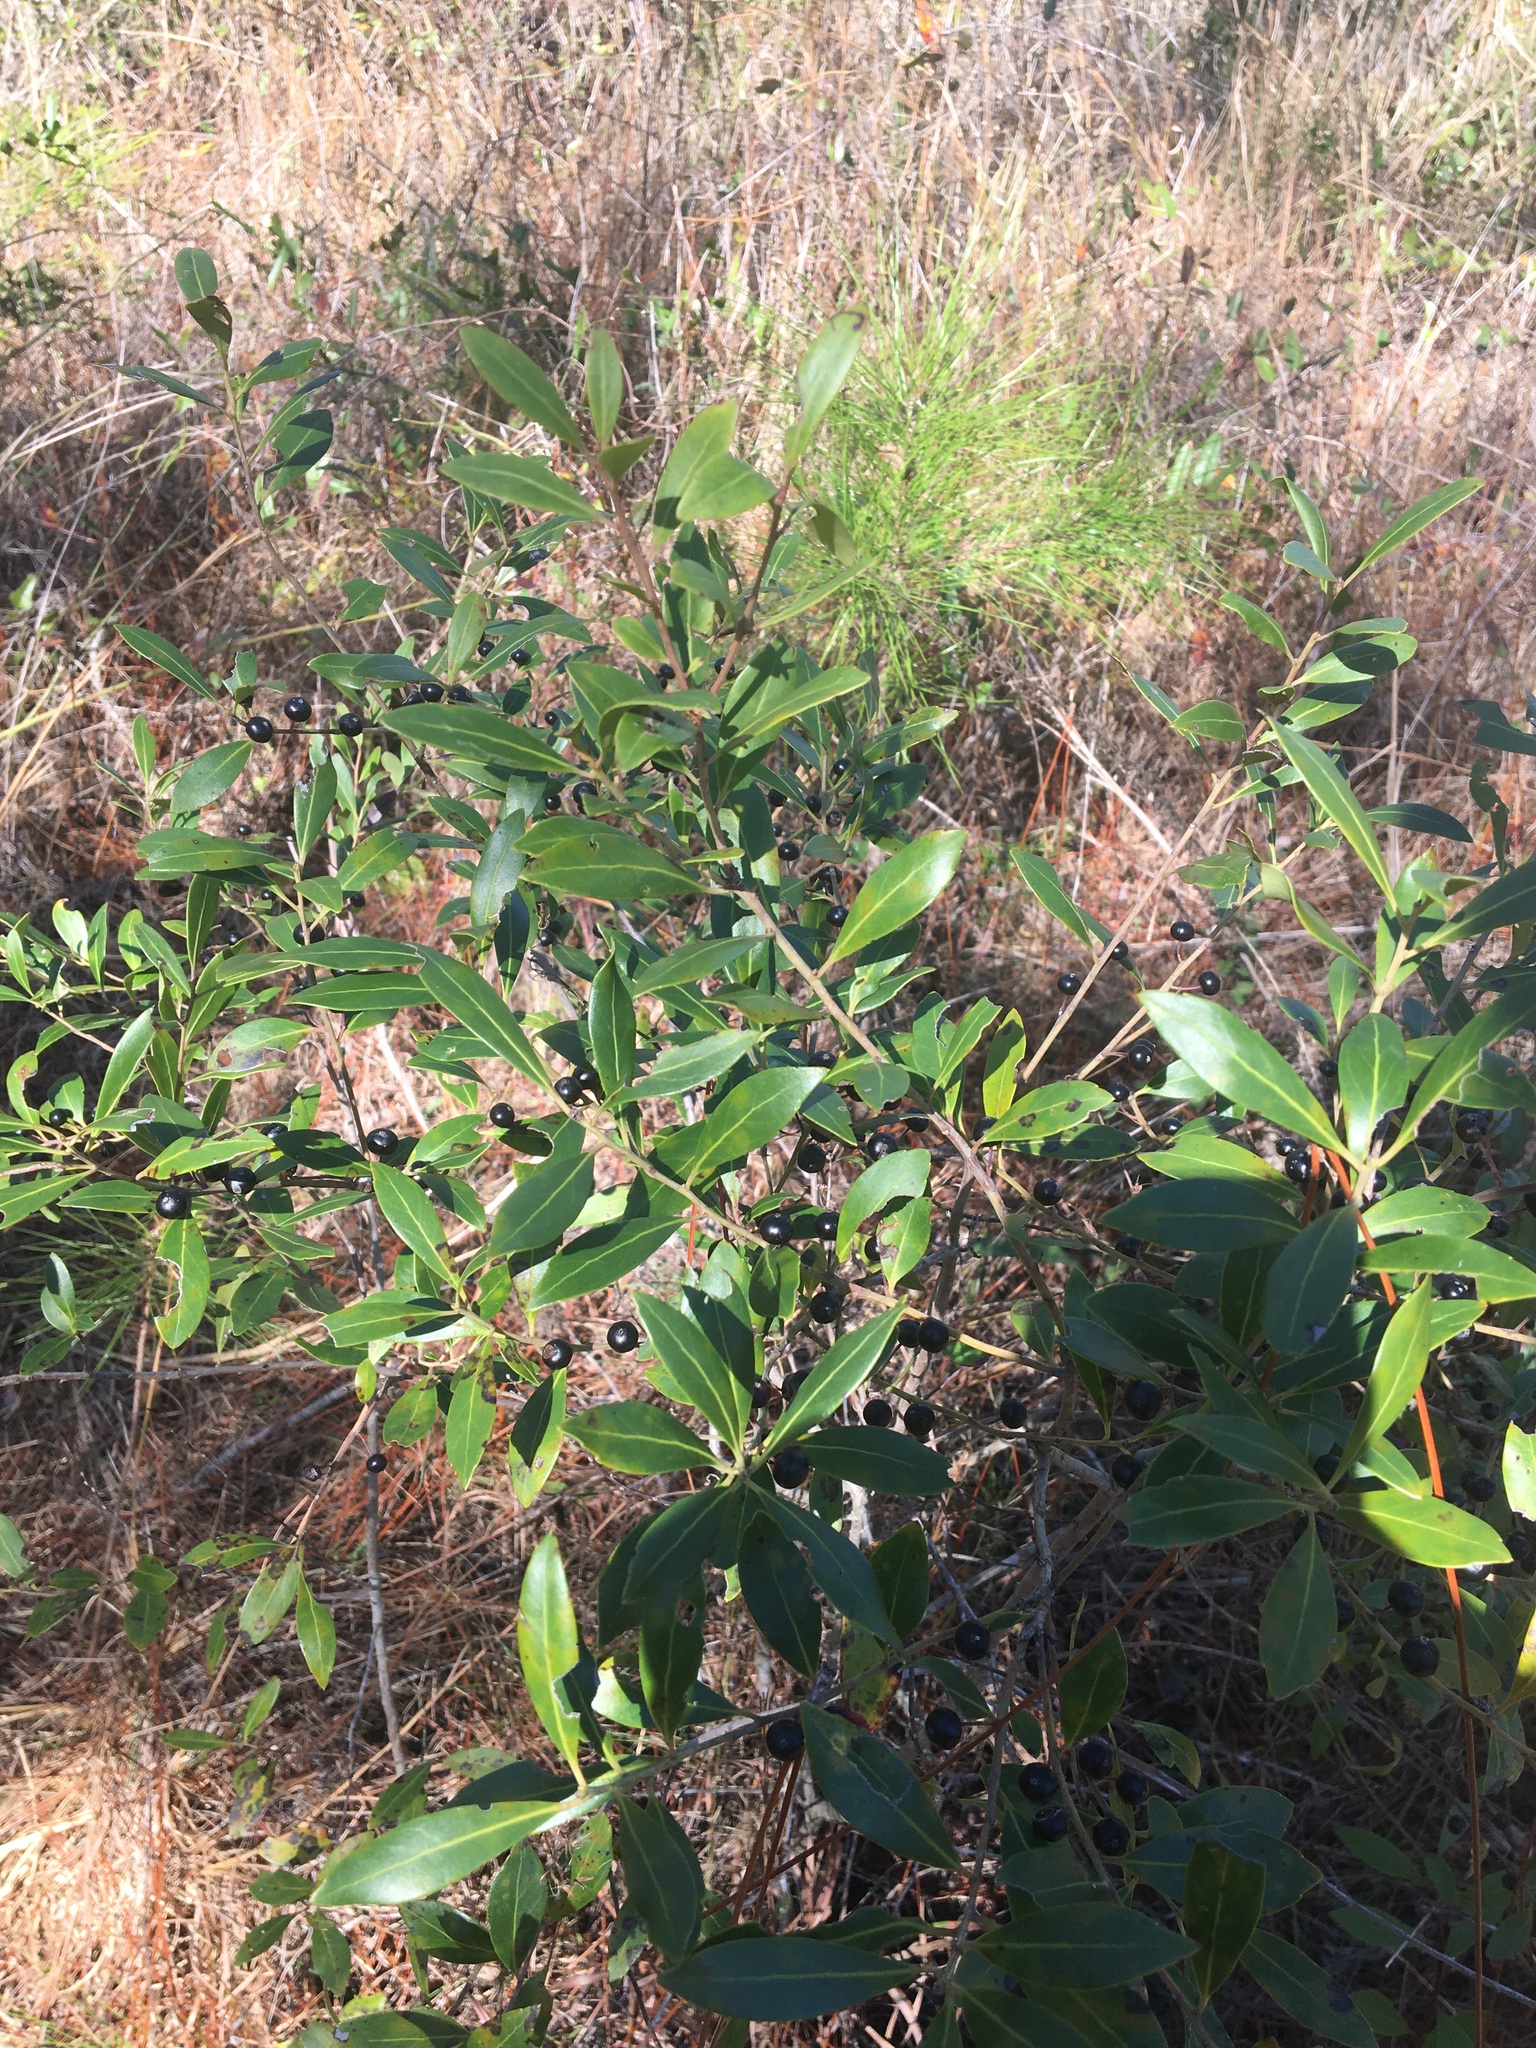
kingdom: Plantae
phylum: Tracheophyta
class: Magnoliopsida
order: Aquifoliales
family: Aquifoliaceae
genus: Ilex
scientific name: Ilex glabra
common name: Bitter gallberry
